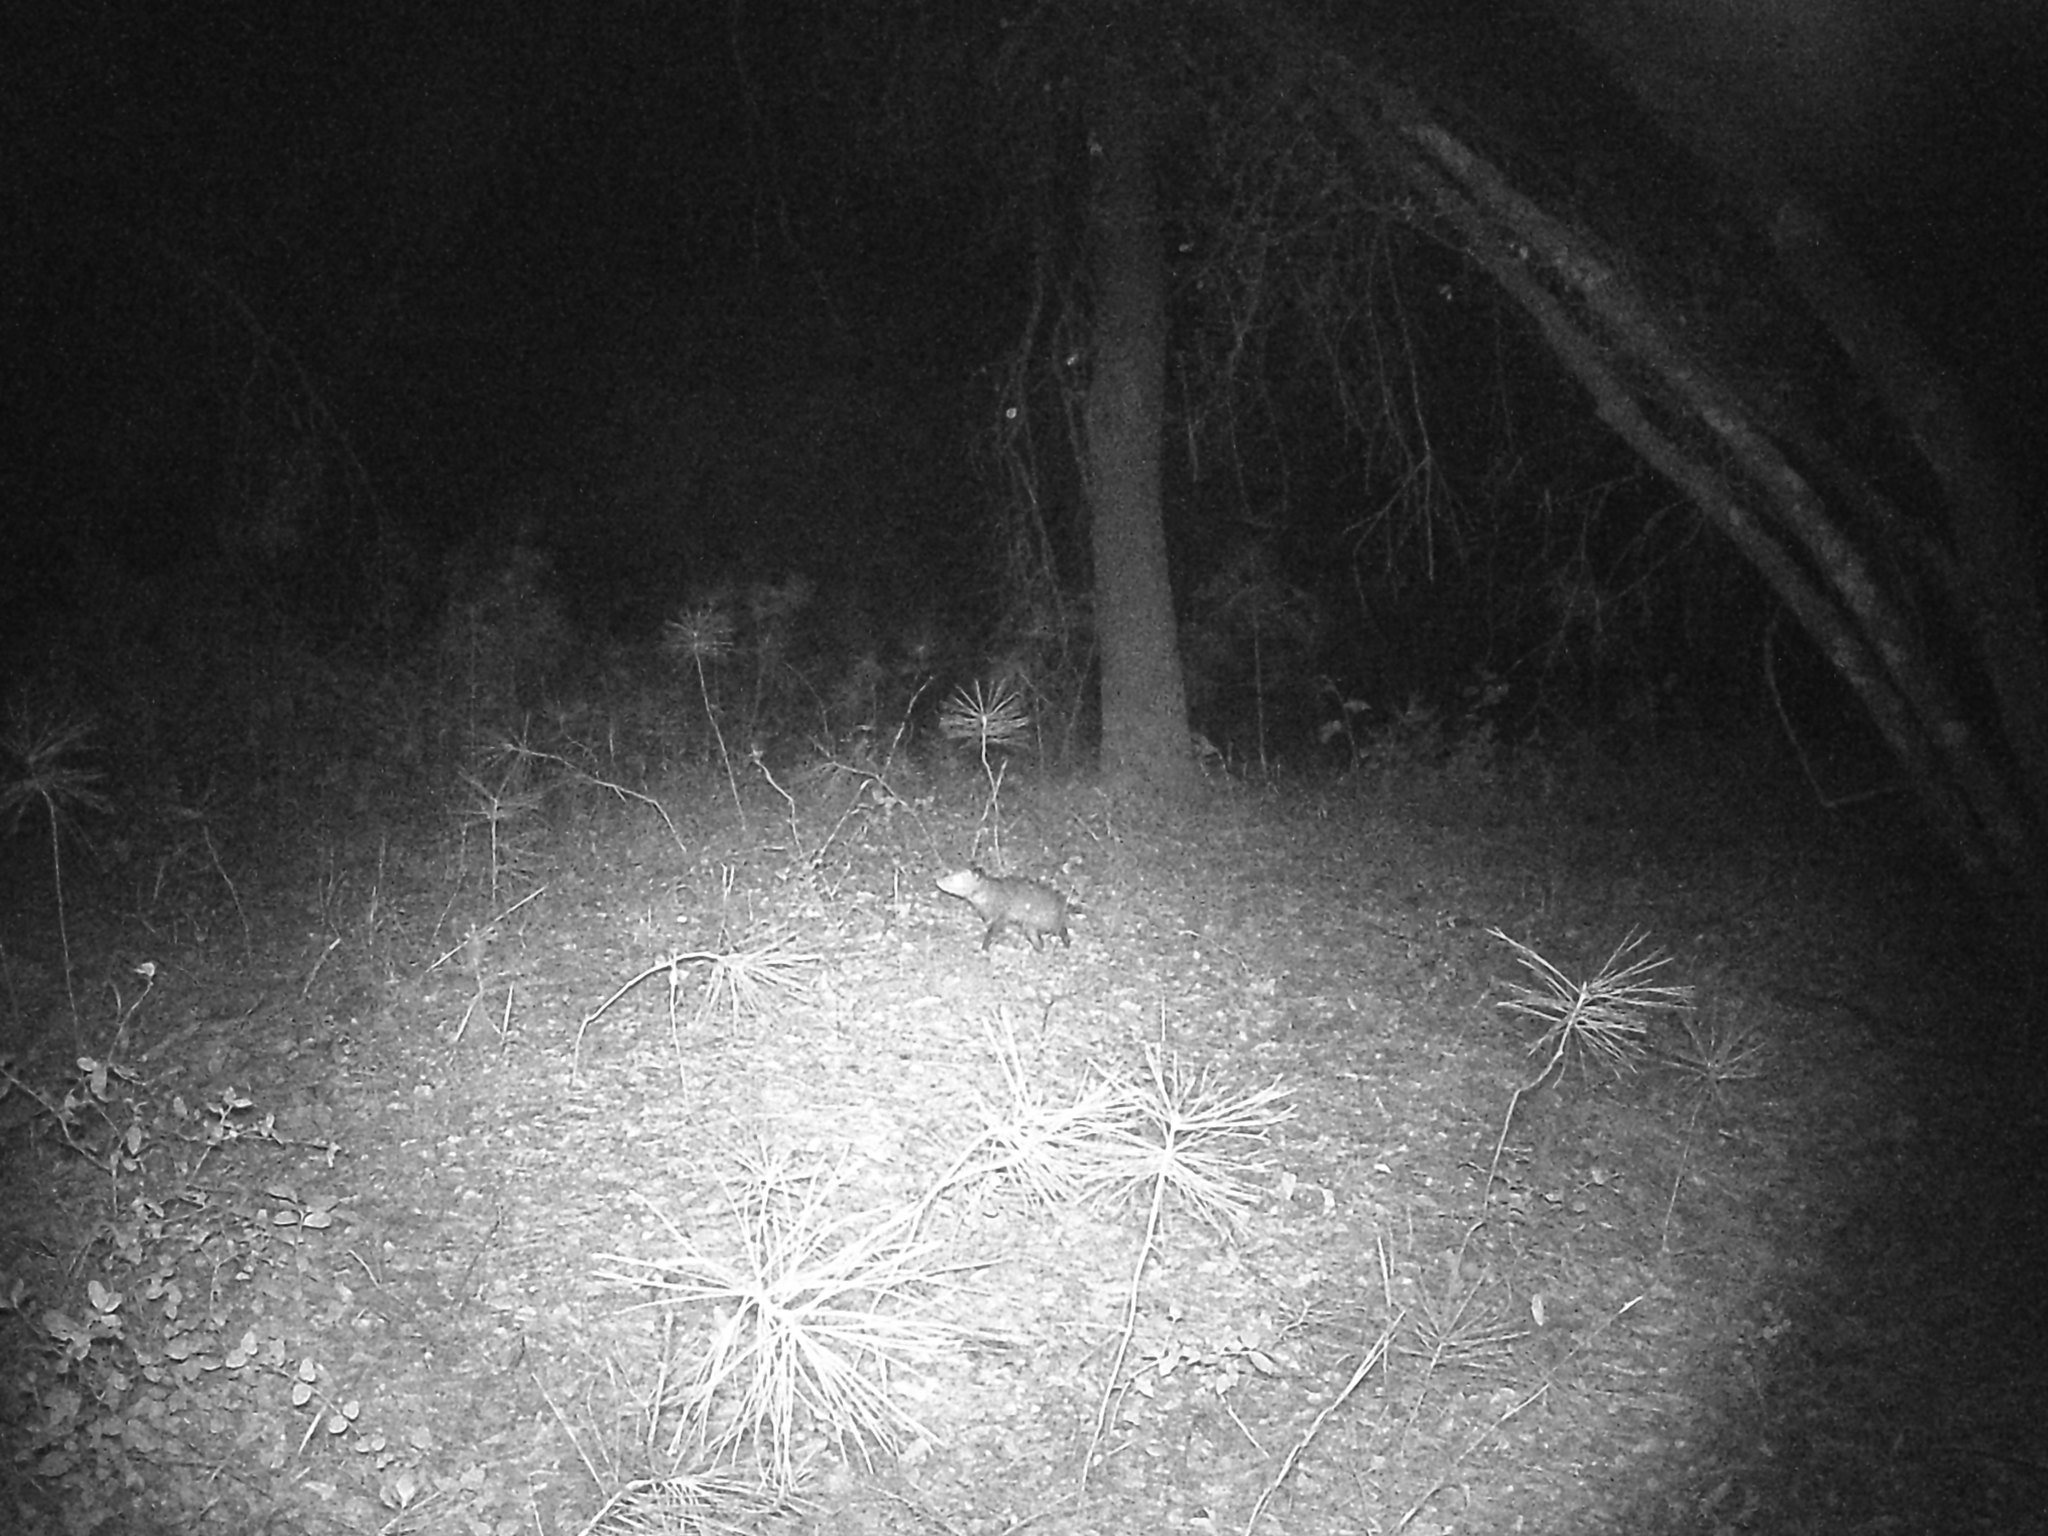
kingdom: Animalia
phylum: Chordata
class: Mammalia
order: Didelphimorphia
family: Didelphidae
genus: Didelphis
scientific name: Didelphis virginiana
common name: Virginia opossum
